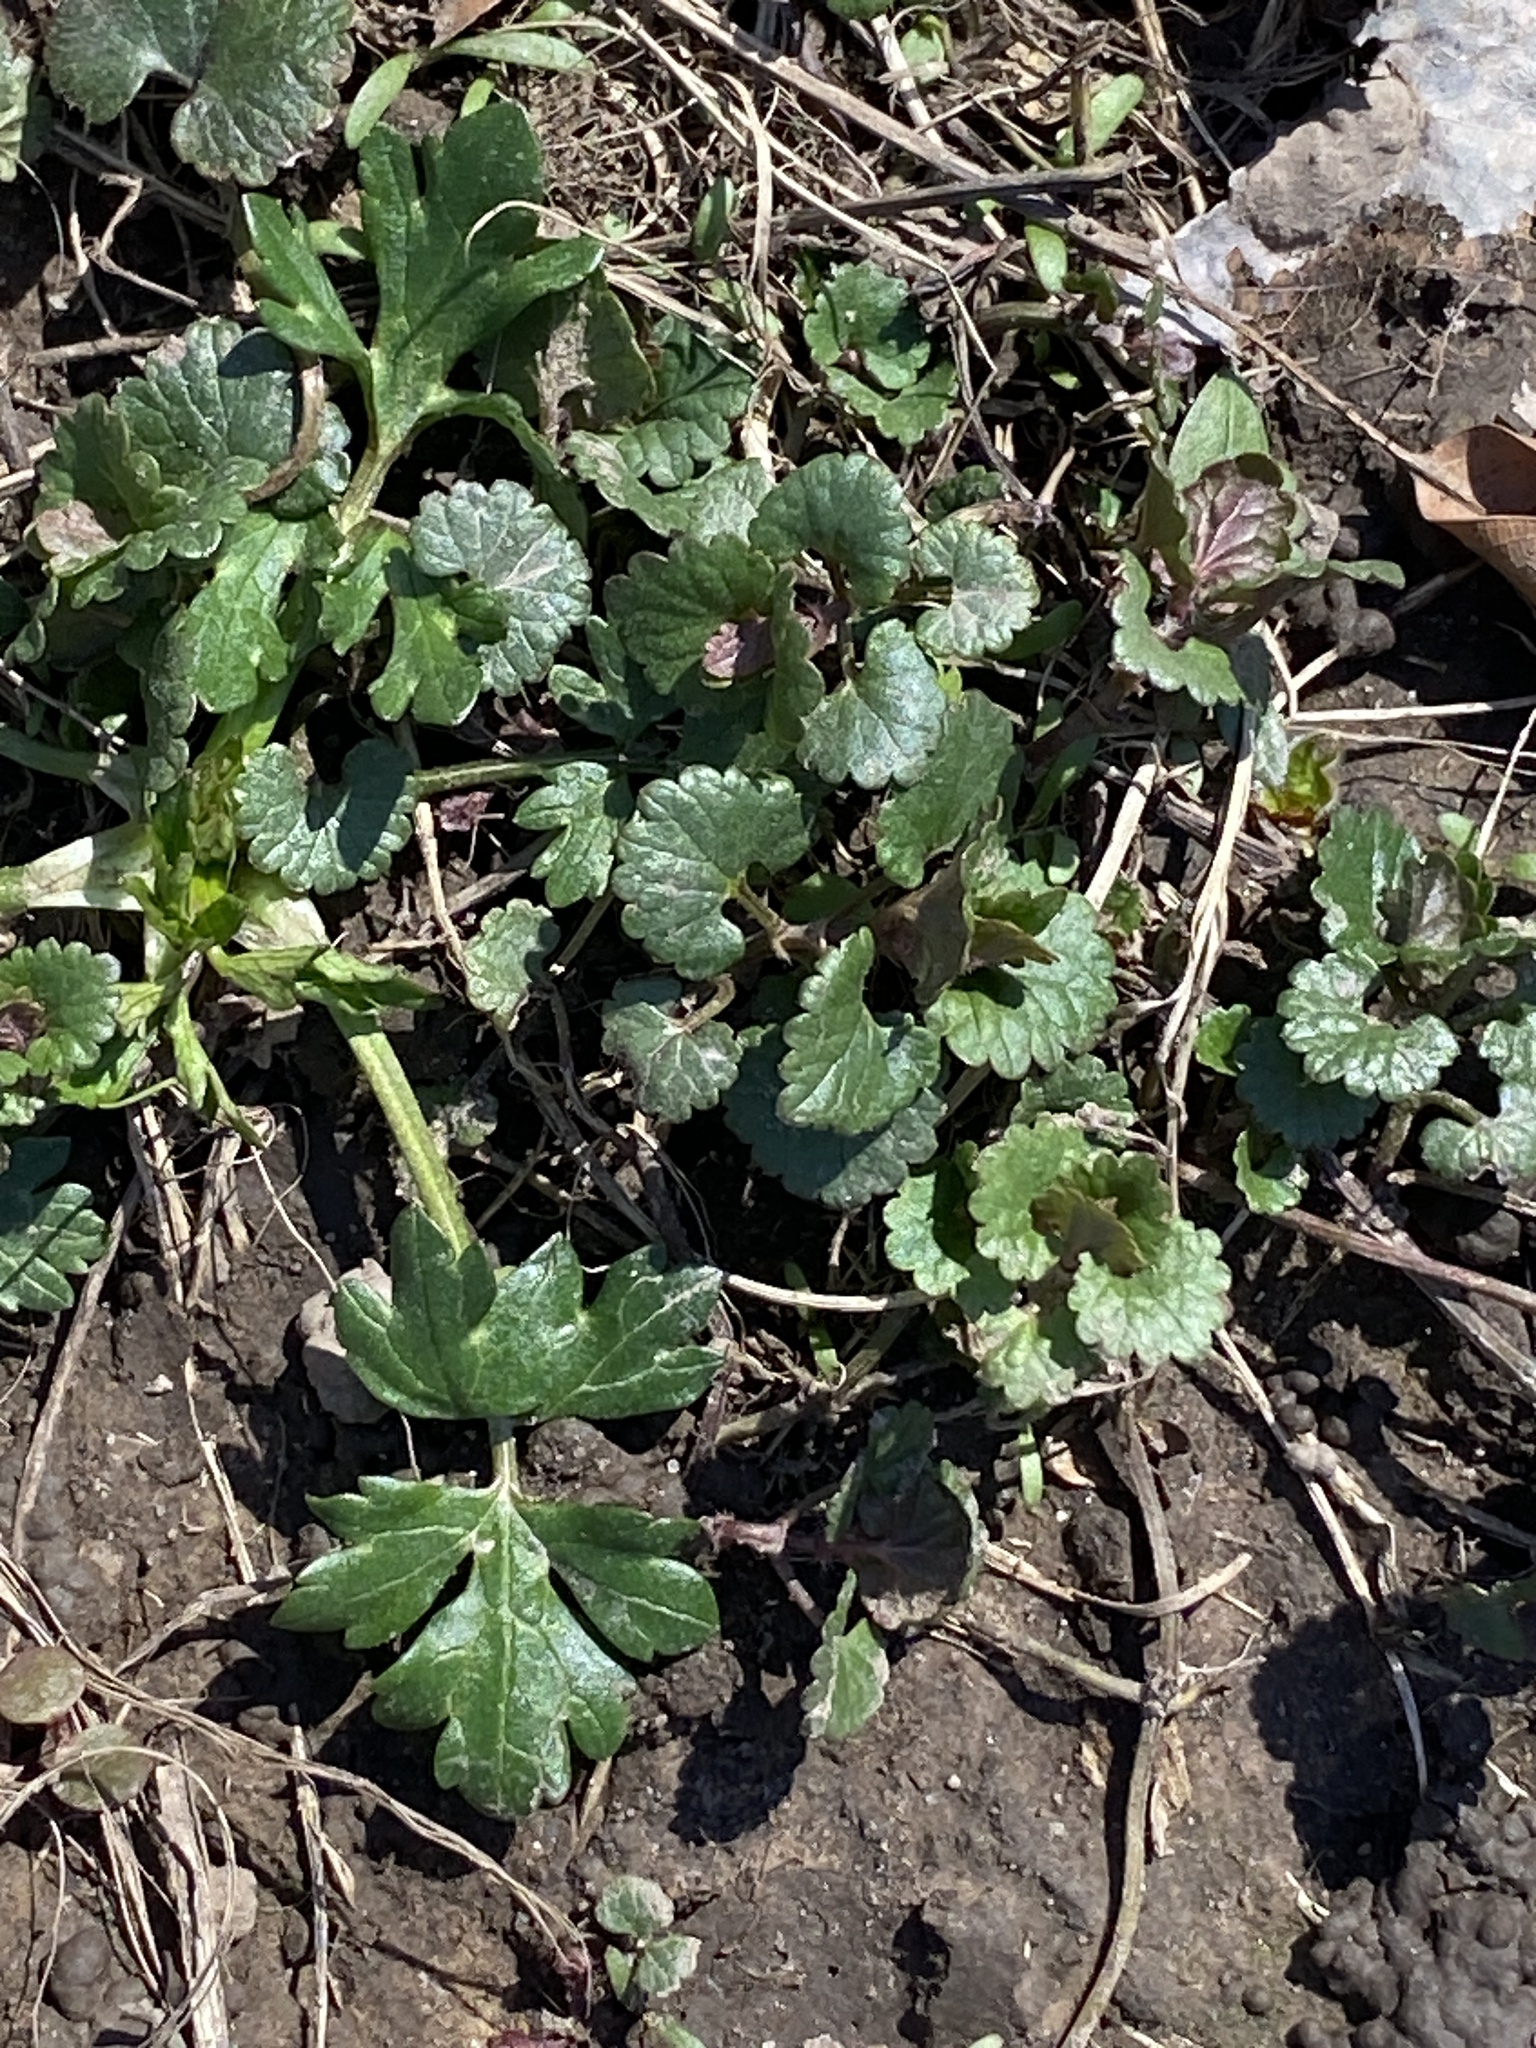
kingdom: Plantae
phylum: Tracheophyta
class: Magnoliopsida
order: Lamiales
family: Lamiaceae
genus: Glechoma
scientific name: Glechoma hederacea
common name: Ground ivy
